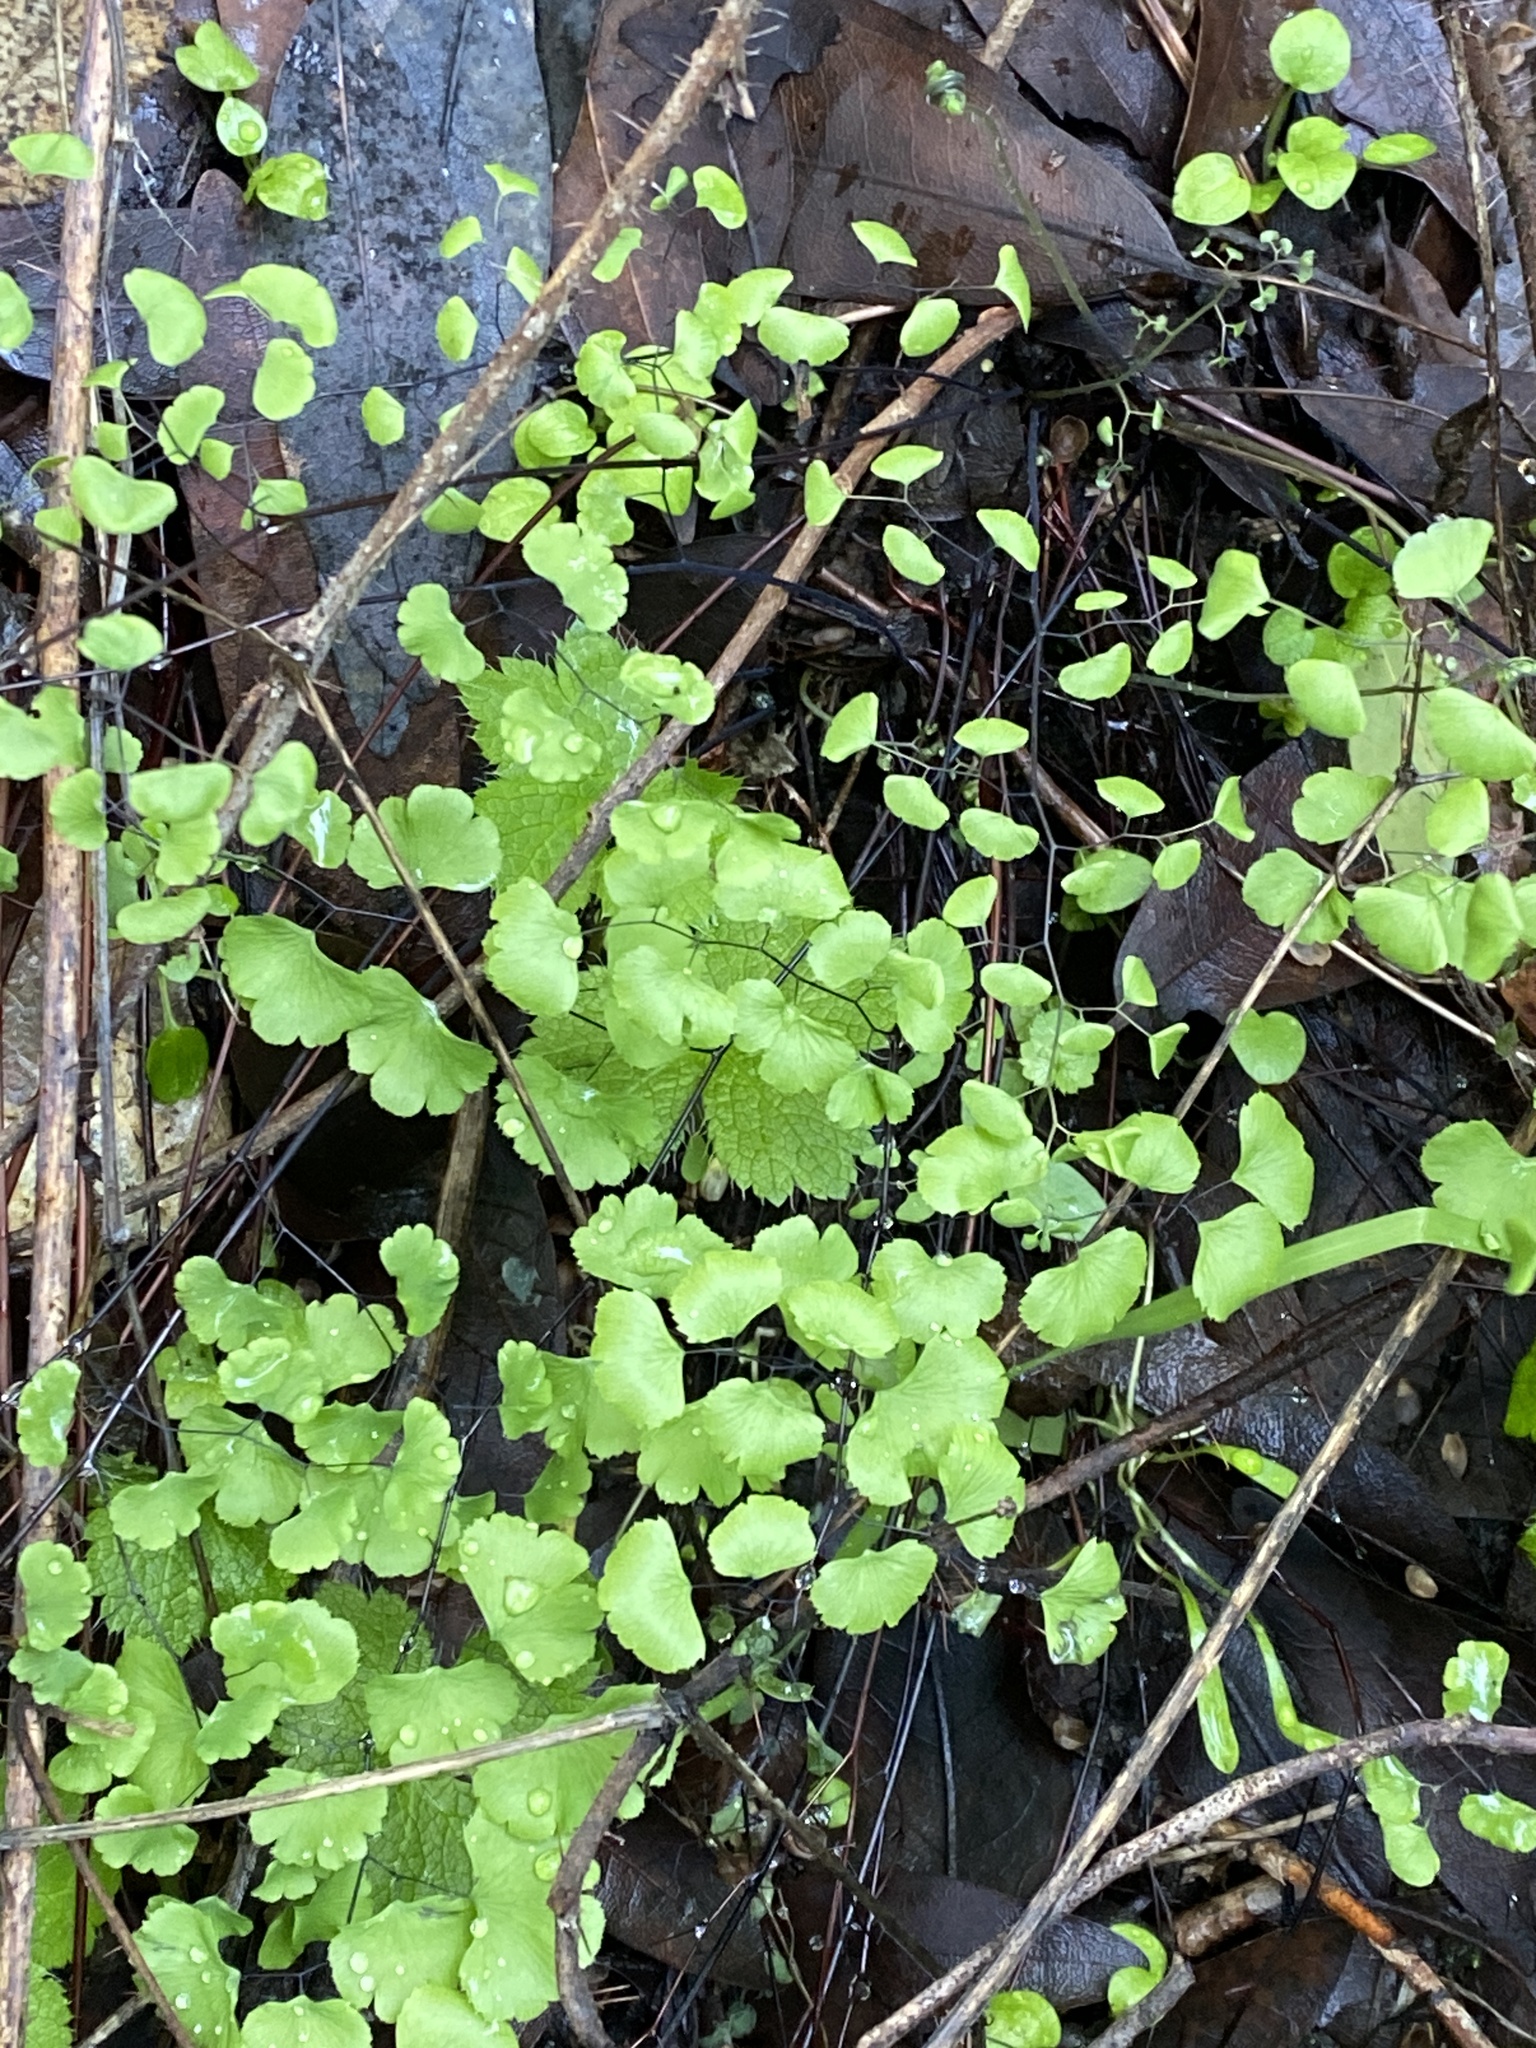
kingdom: Plantae
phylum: Tracheophyta
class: Polypodiopsida
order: Polypodiales
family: Pteridaceae
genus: Adiantum
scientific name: Adiantum jordanii
